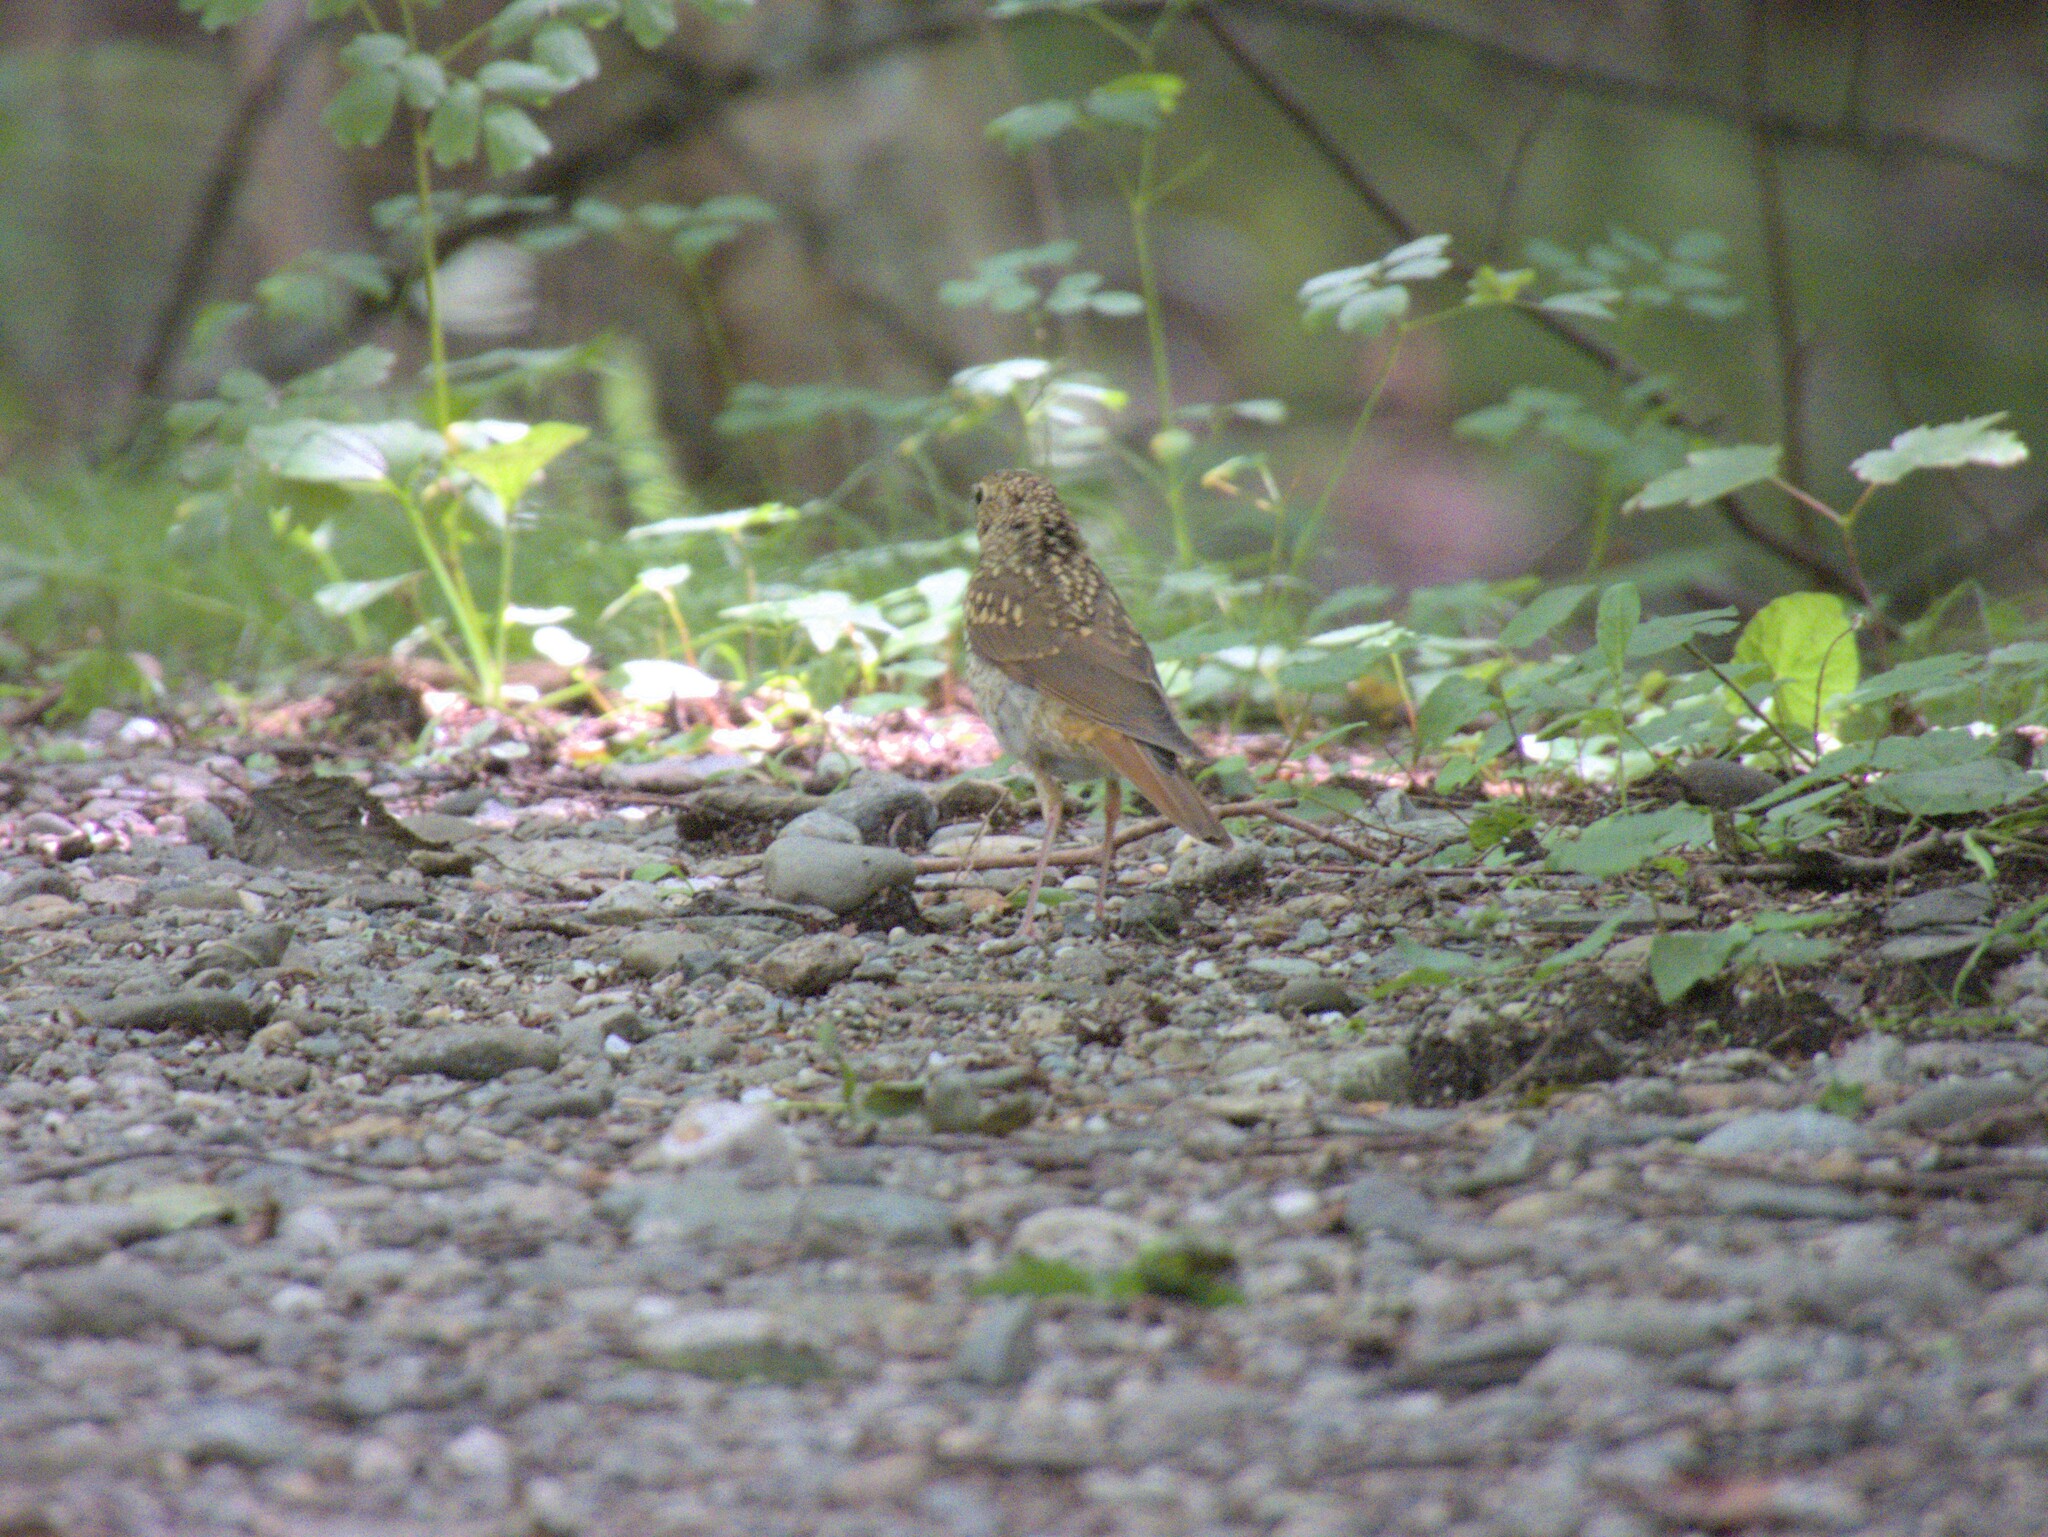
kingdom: Animalia
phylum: Chordata
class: Aves
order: Passeriformes
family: Turdidae
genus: Catharus
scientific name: Catharus guttatus
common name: Hermit thrush
